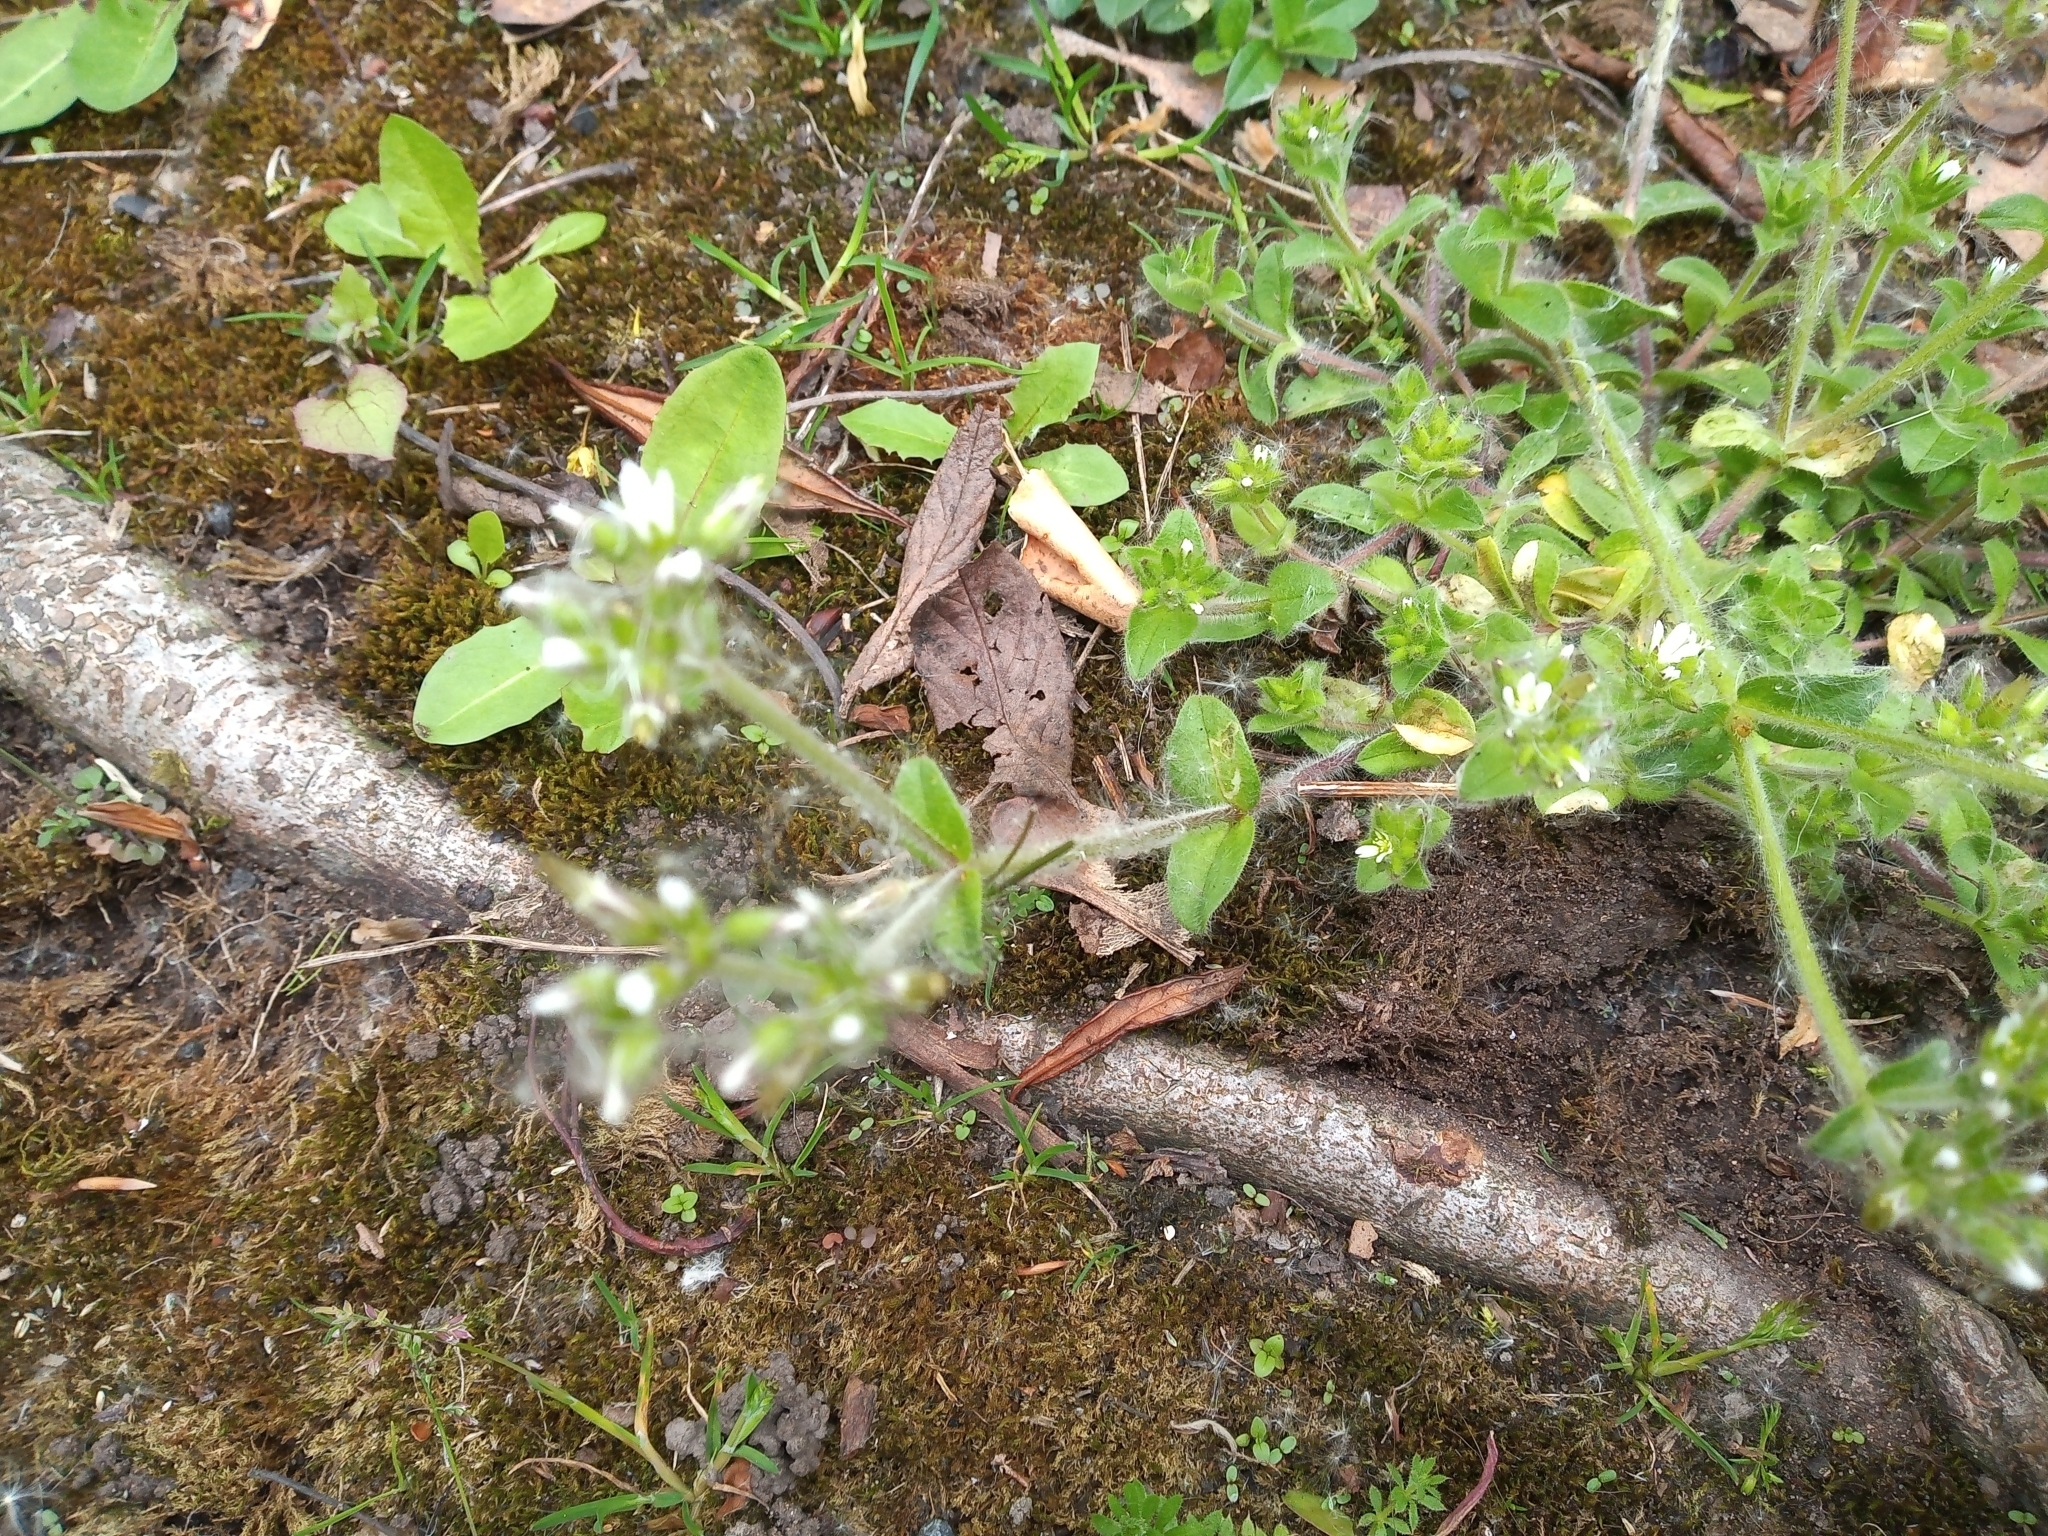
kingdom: Plantae
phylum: Tracheophyta
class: Magnoliopsida
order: Caryophyllales
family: Caryophyllaceae
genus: Cerastium
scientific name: Cerastium glomeratum
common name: Sticky chickweed
